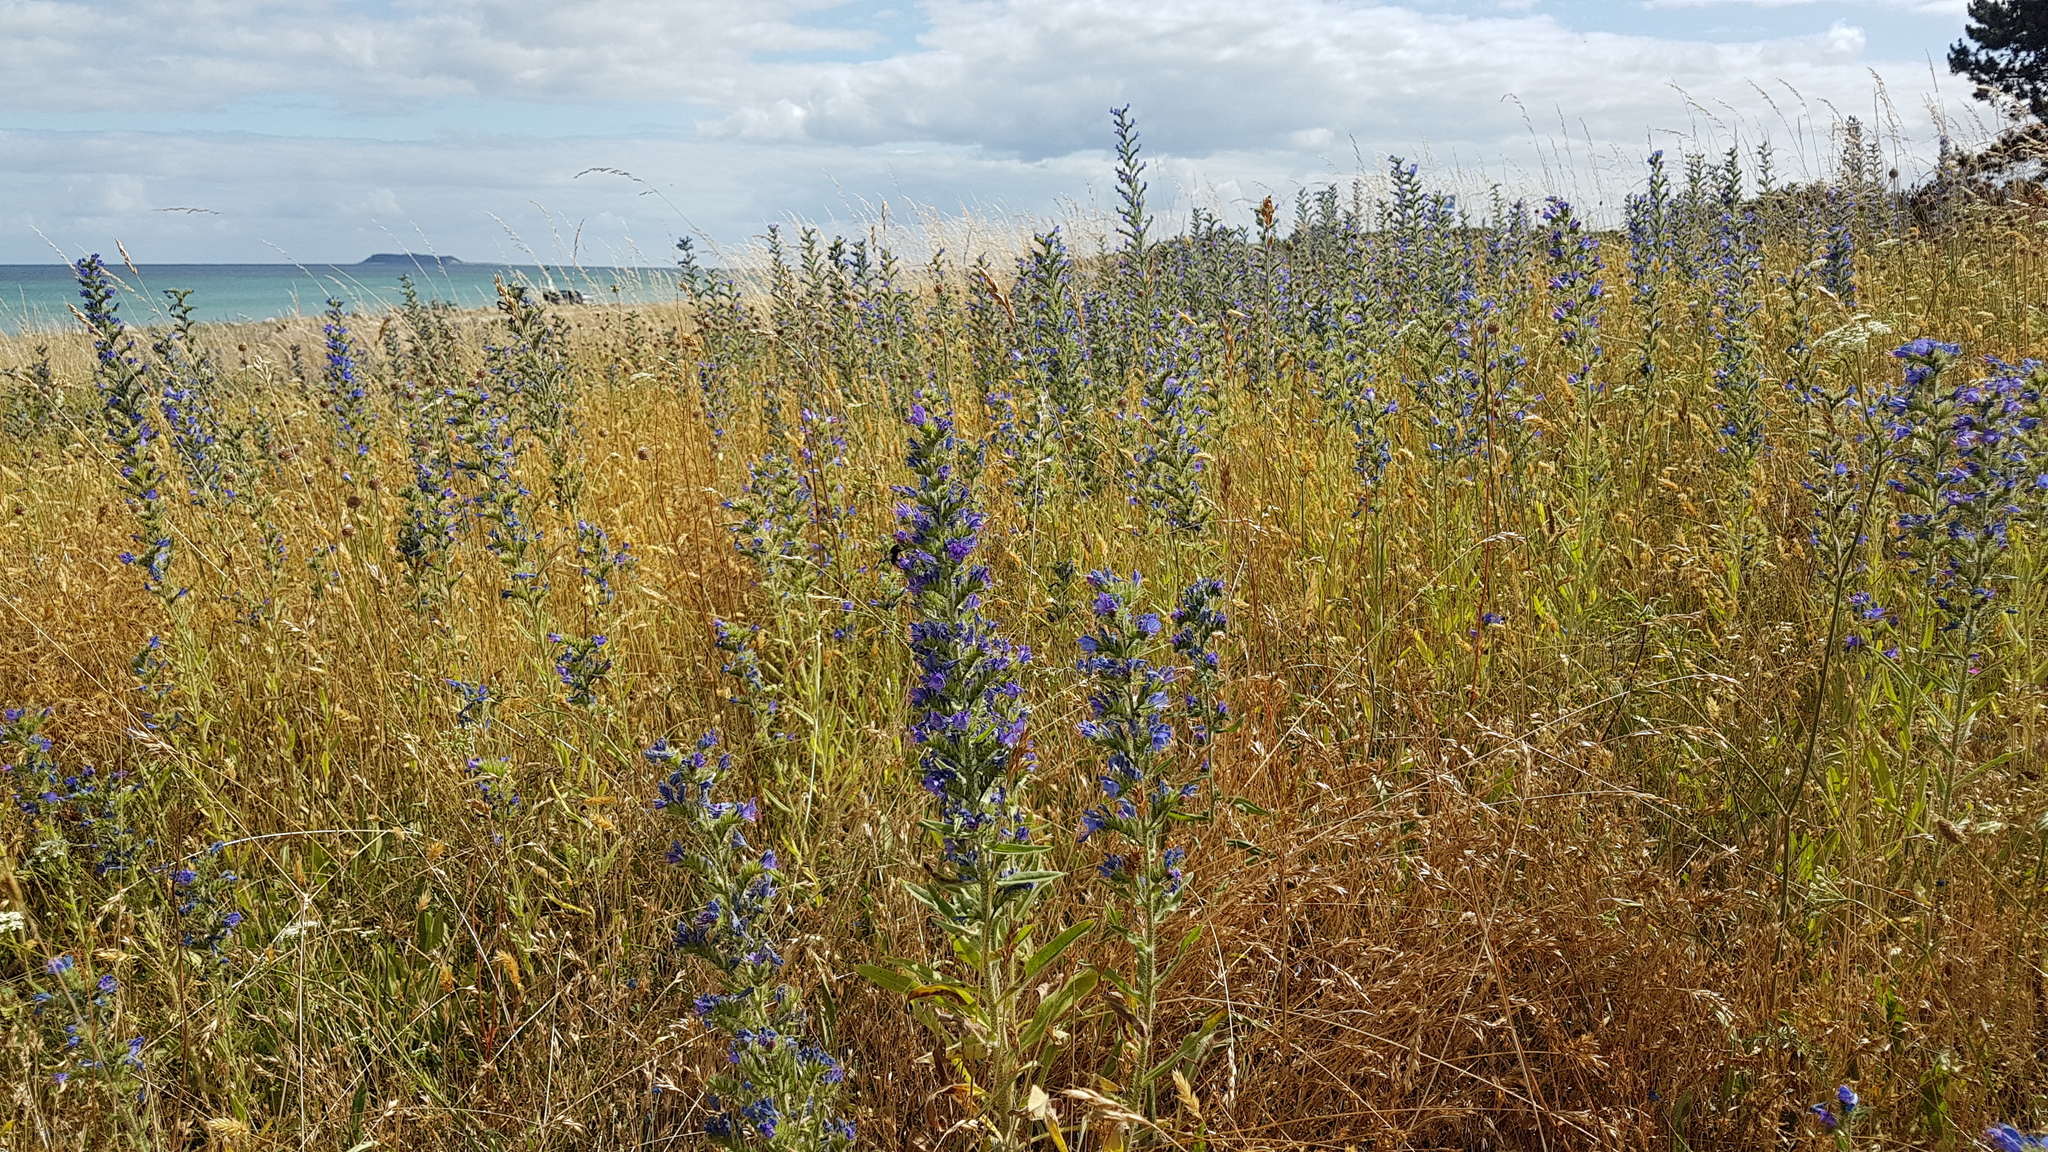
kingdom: Plantae
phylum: Tracheophyta
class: Magnoliopsida
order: Boraginales
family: Boraginaceae
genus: Echium
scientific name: Echium vulgare
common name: Common viper's bugloss
